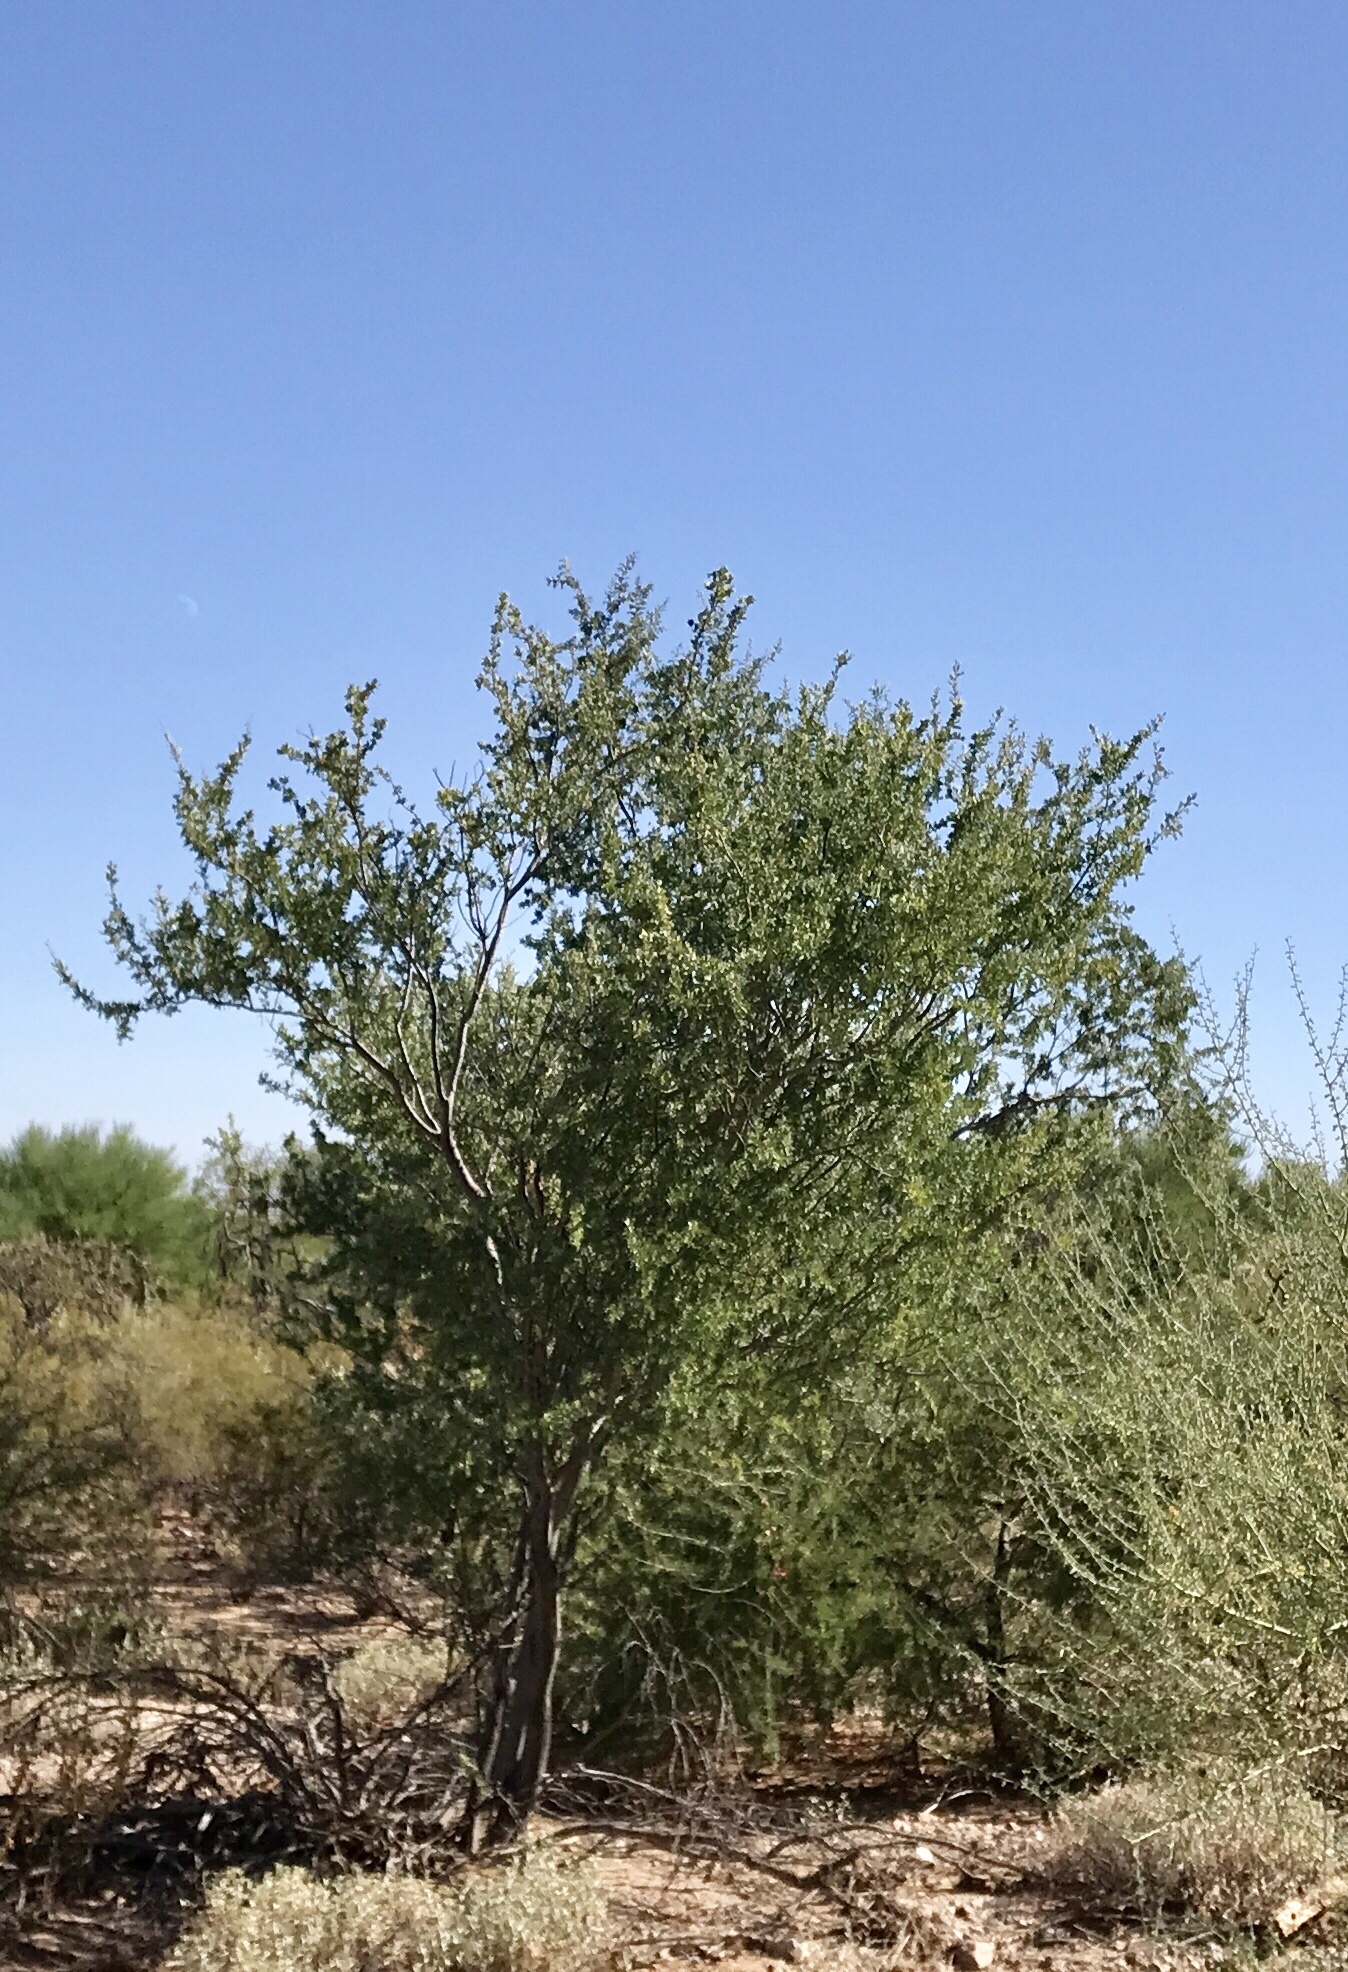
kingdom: Plantae
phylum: Tracheophyta
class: Magnoliopsida
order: Fabales
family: Fabaceae
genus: Olneya
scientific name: Olneya tesota
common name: Desert ironwood
